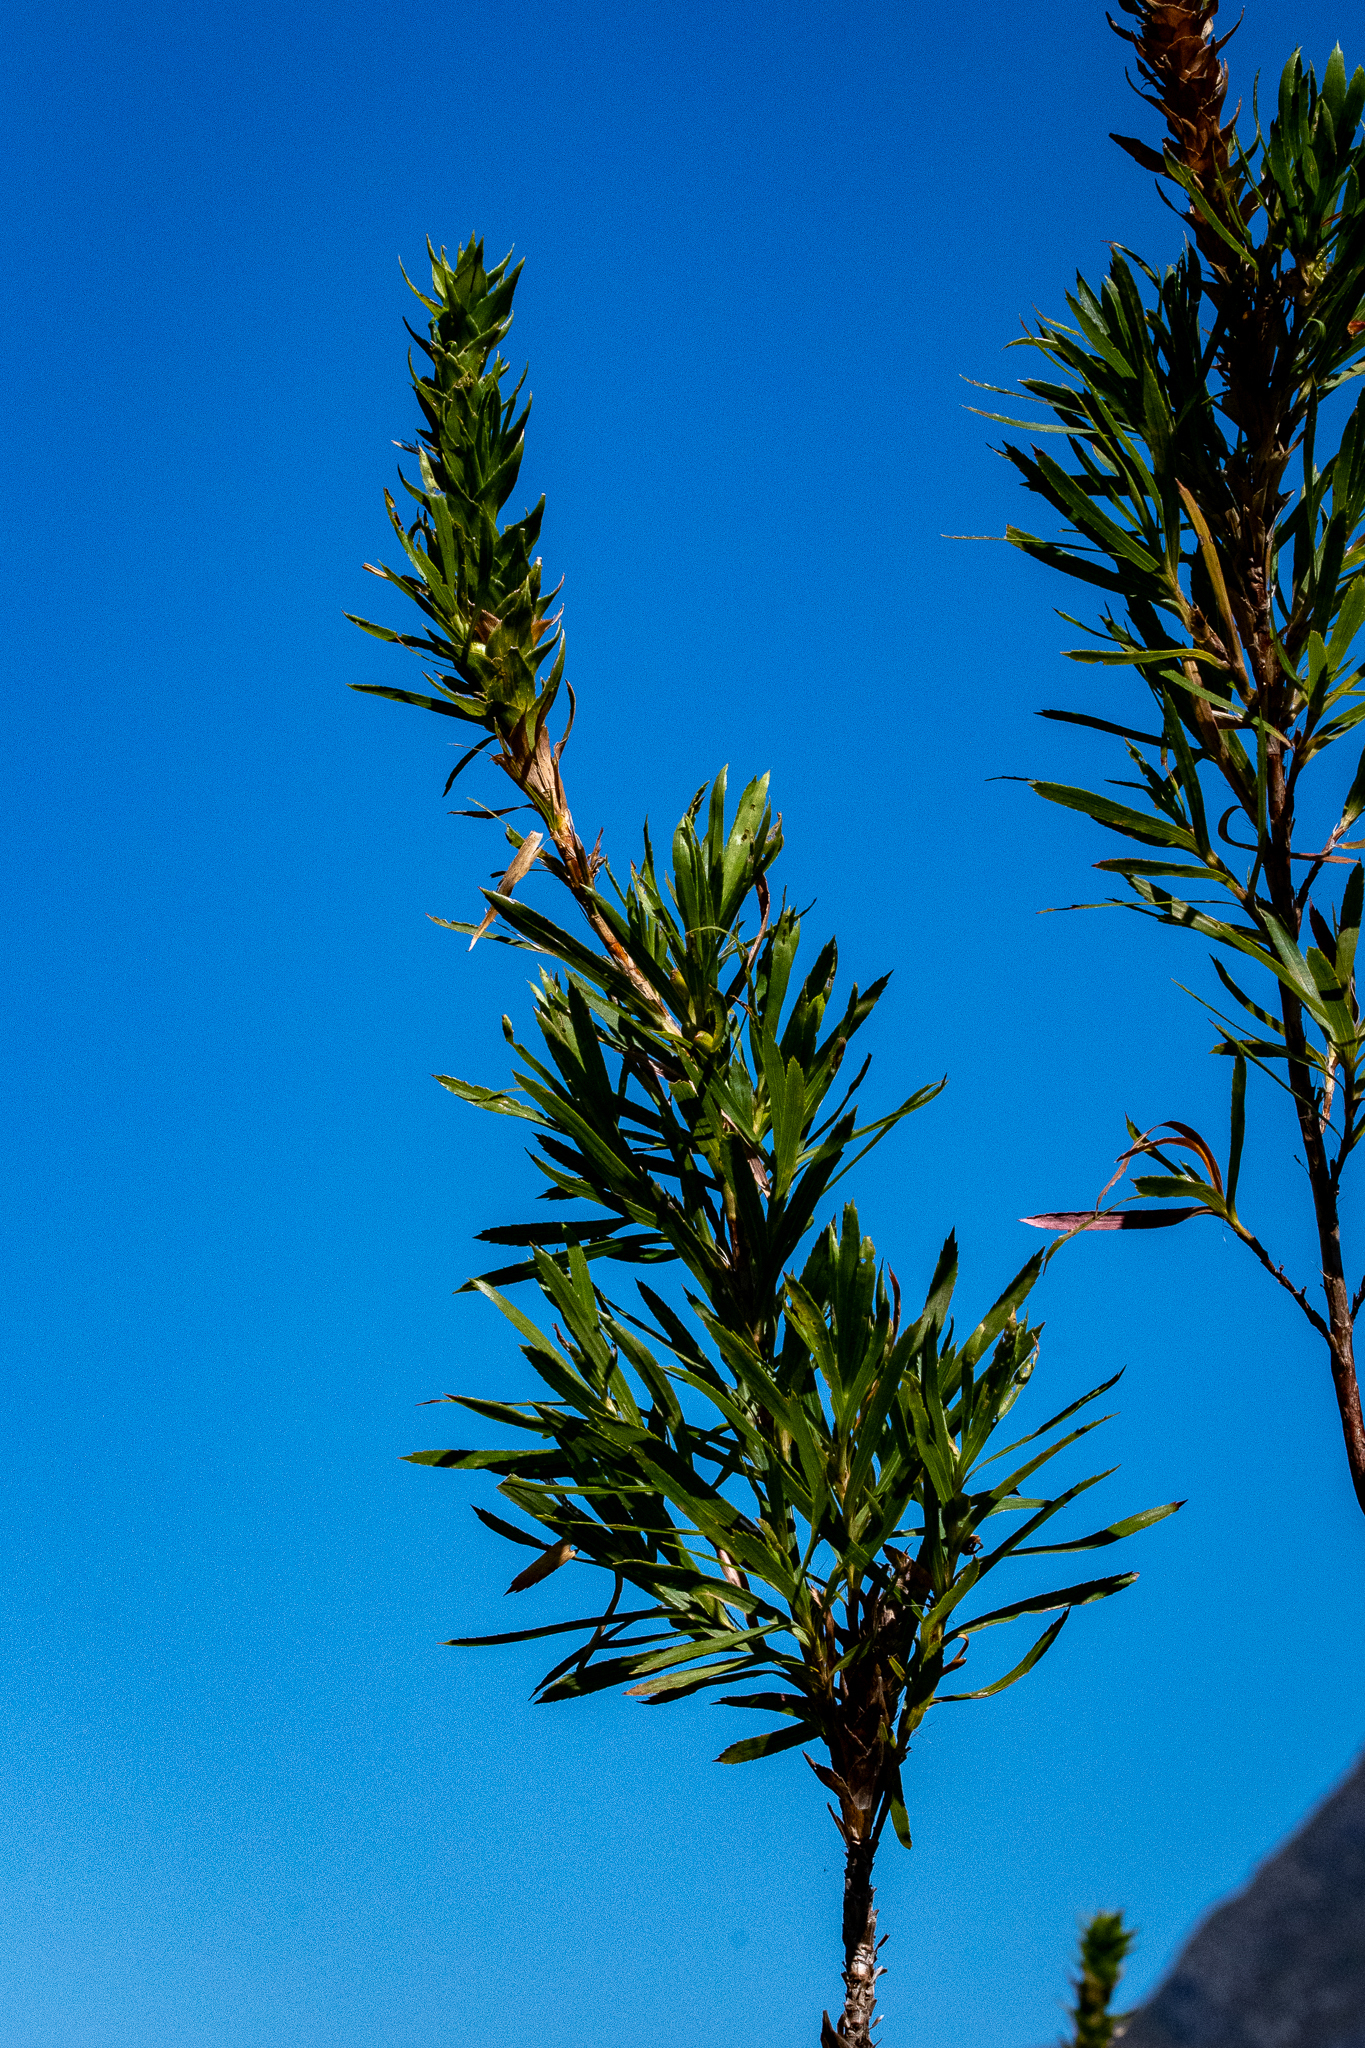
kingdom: Plantae
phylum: Tracheophyta
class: Magnoliopsida
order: Rosales
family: Rosaceae
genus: Cliffortia
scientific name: Cliffortia heterophylla
